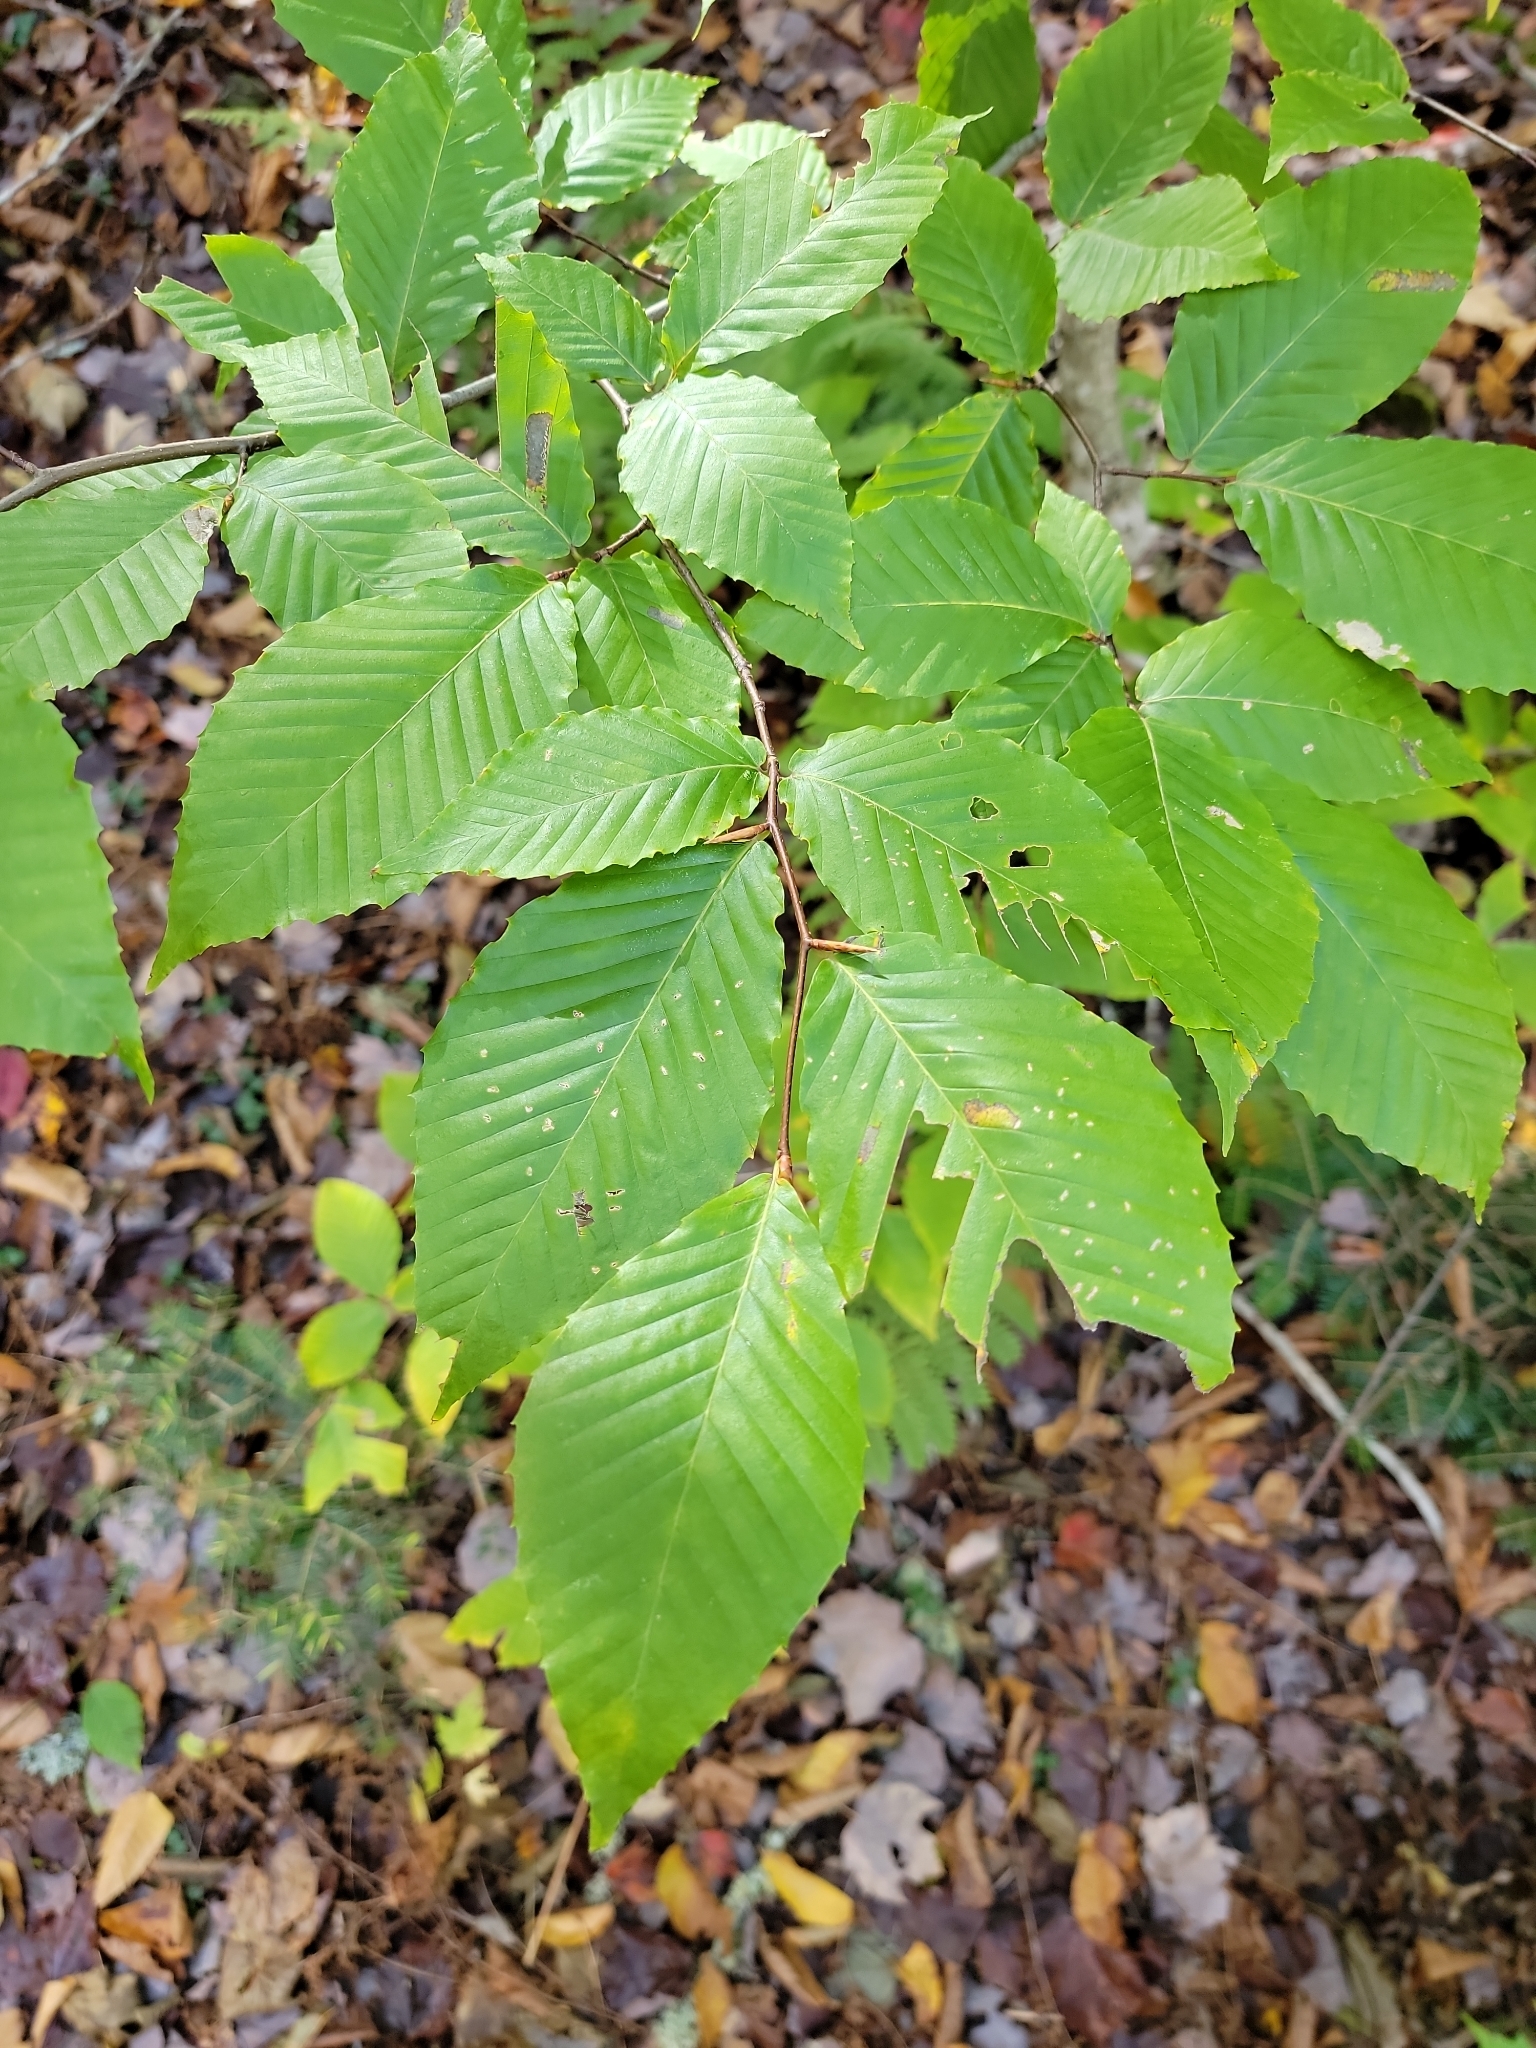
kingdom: Plantae
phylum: Tracheophyta
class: Magnoliopsida
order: Fagales
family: Fagaceae
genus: Fagus
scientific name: Fagus grandifolia
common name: American beech
